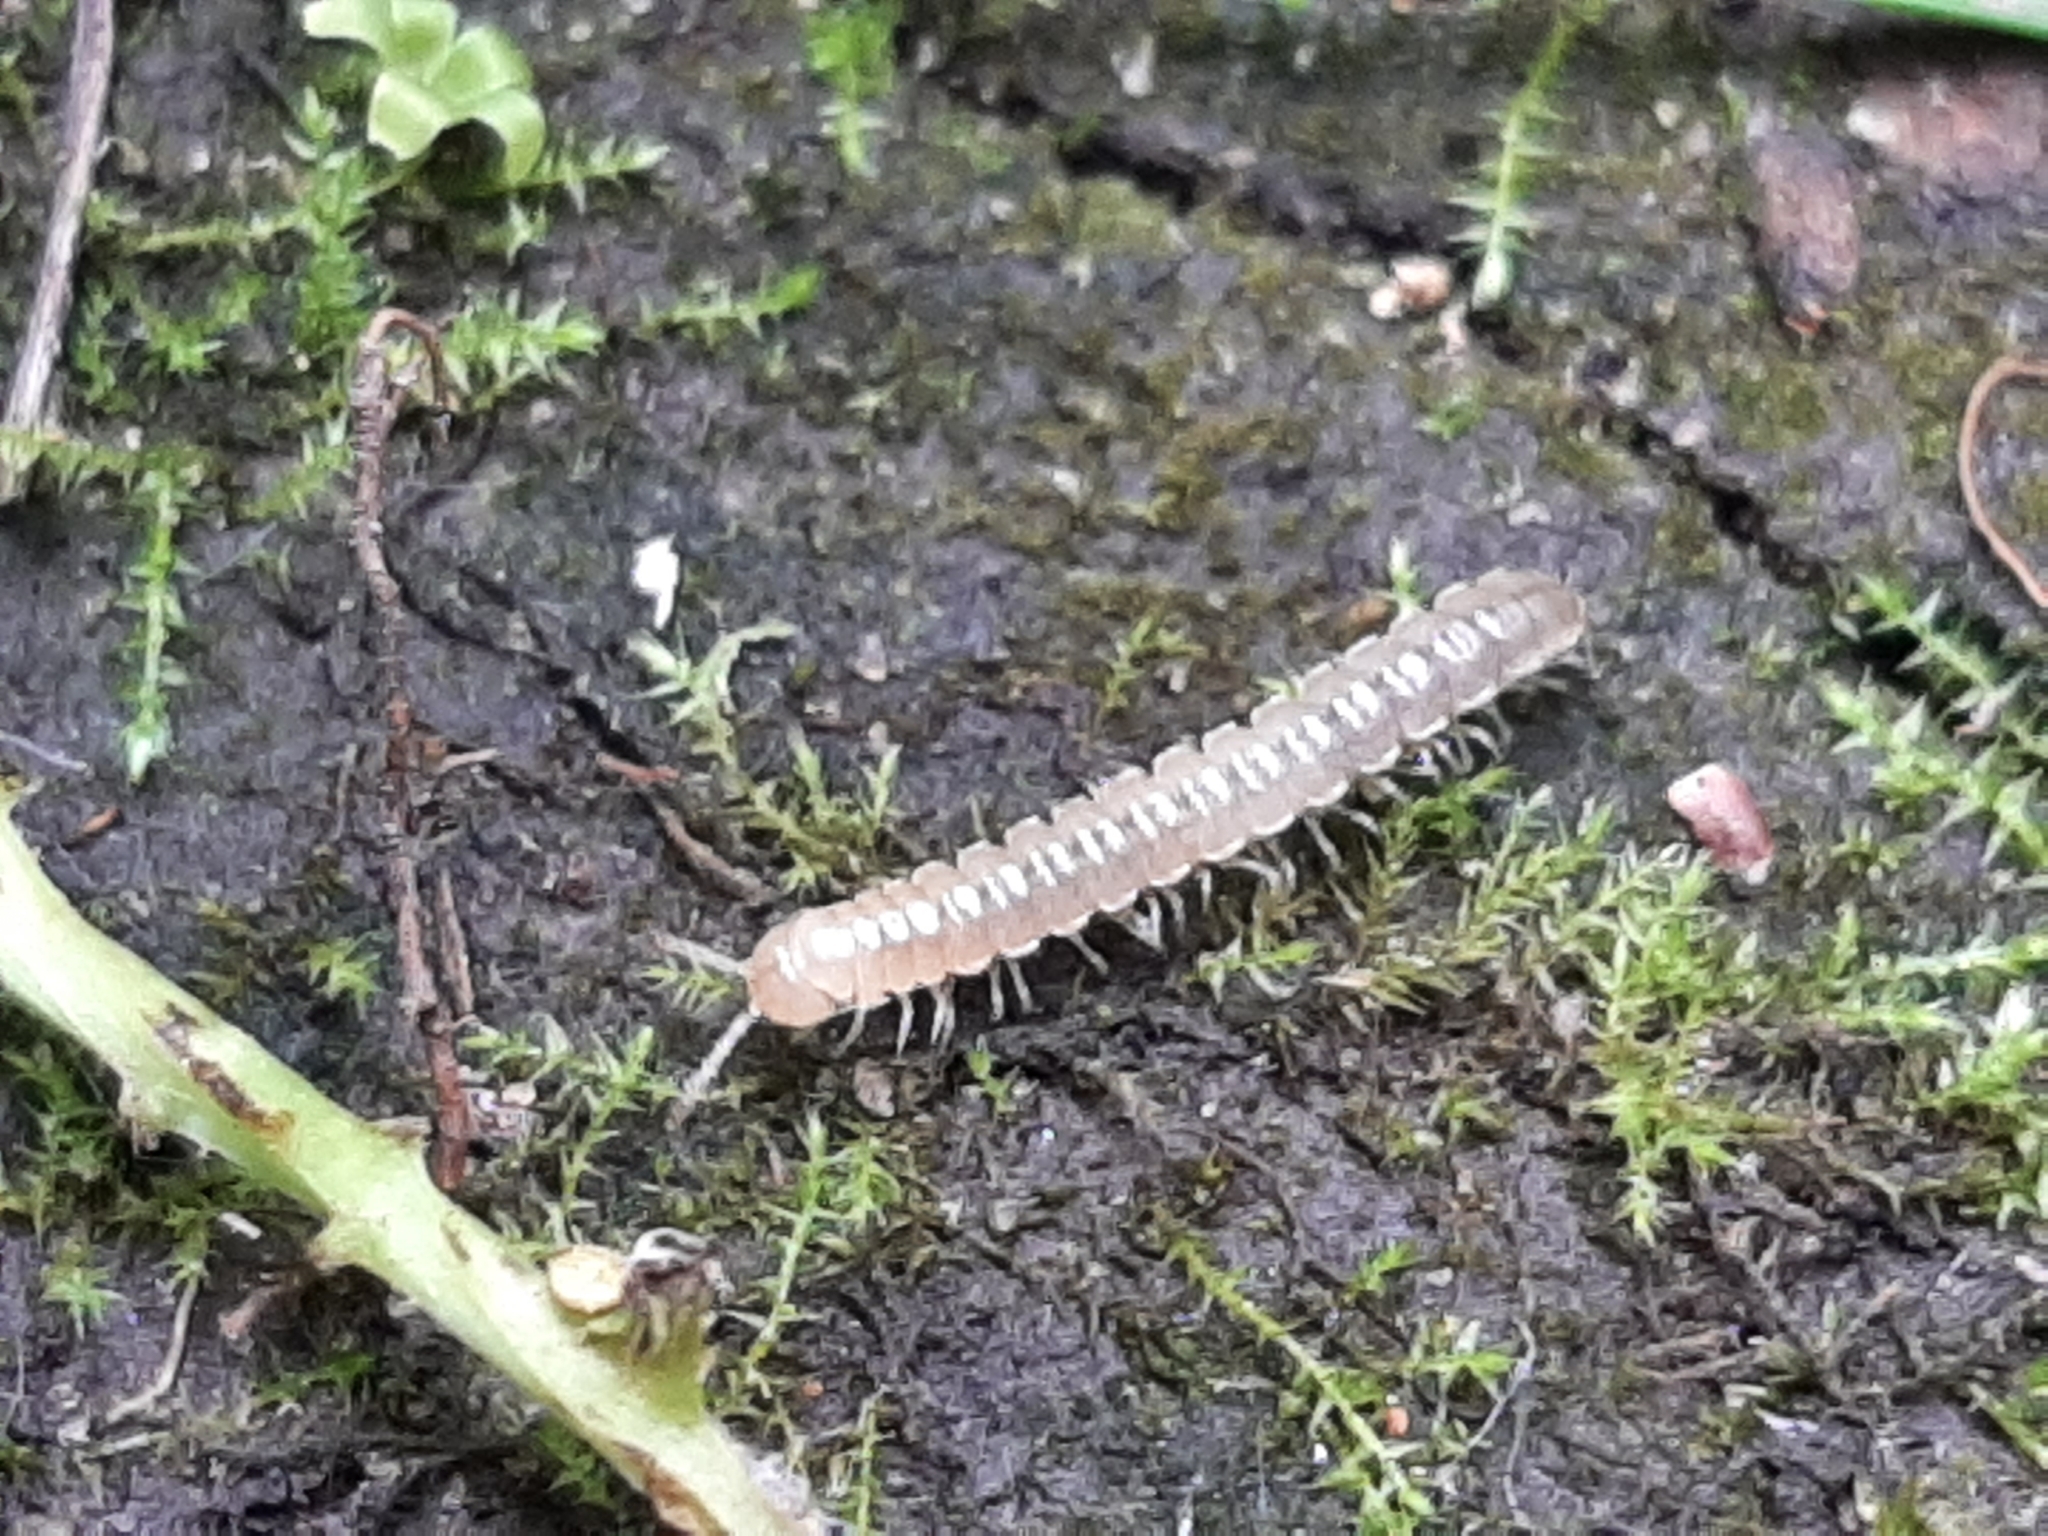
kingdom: Animalia
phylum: Arthropoda
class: Diplopoda
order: Polydesmida
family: Paradoxosomatidae
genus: Oxidus
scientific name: Oxidus gracilis
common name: Greenhouse millipede
